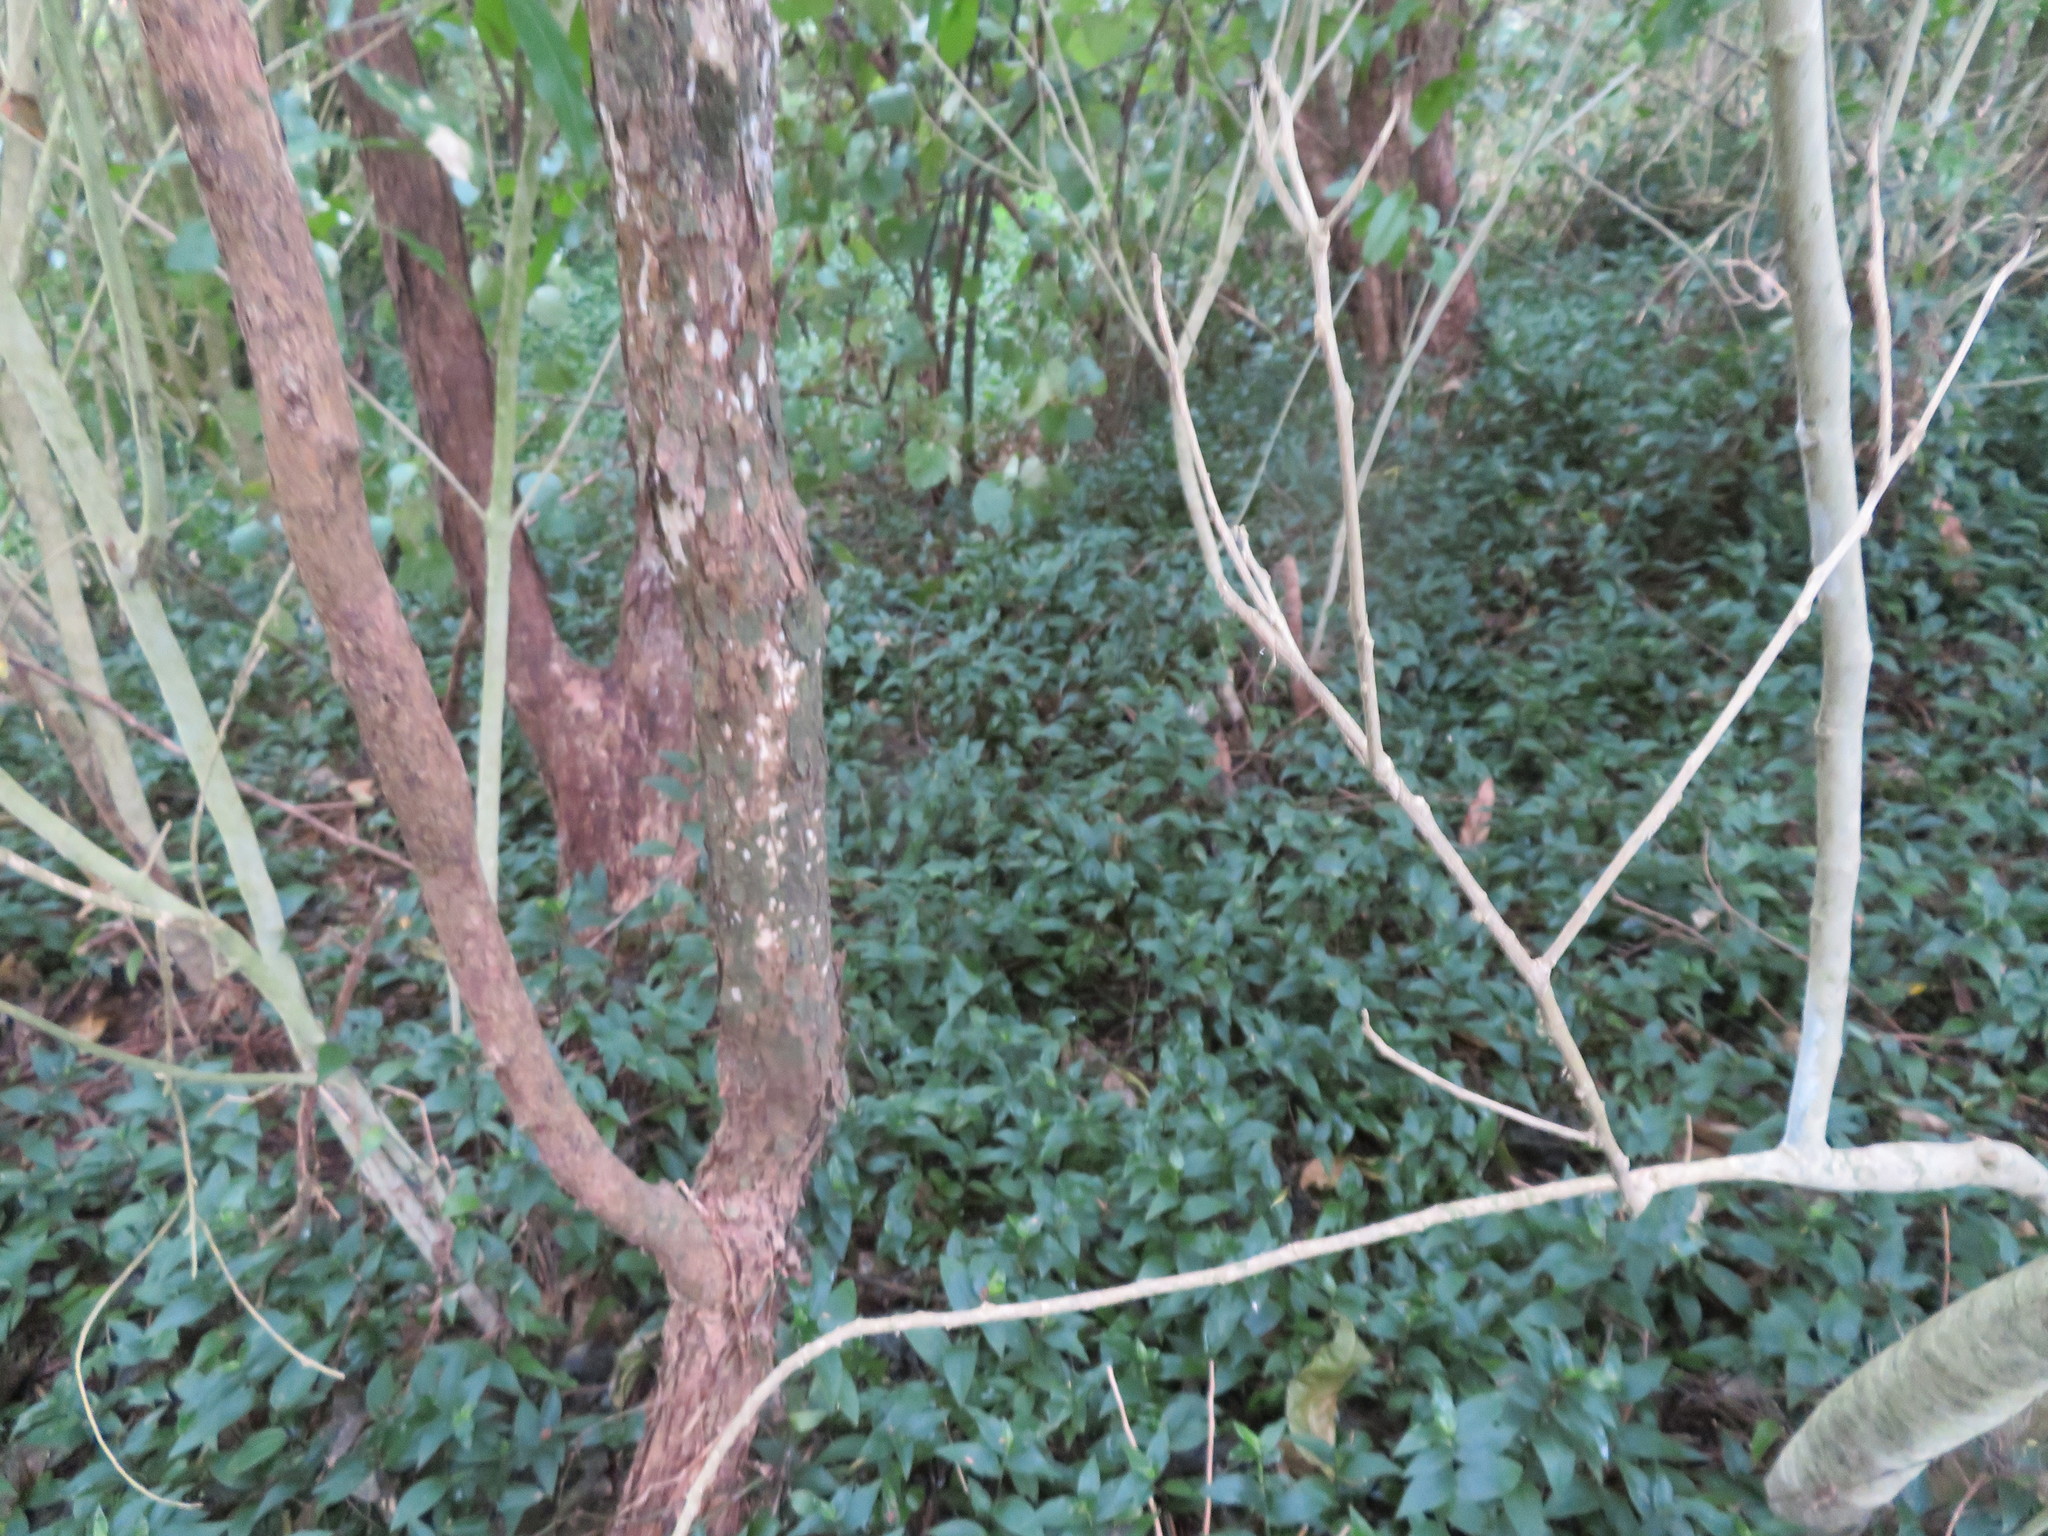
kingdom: Plantae
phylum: Tracheophyta
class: Magnoliopsida
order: Piperales
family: Piperaceae
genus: Macropiper
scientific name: Macropiper excelsum
